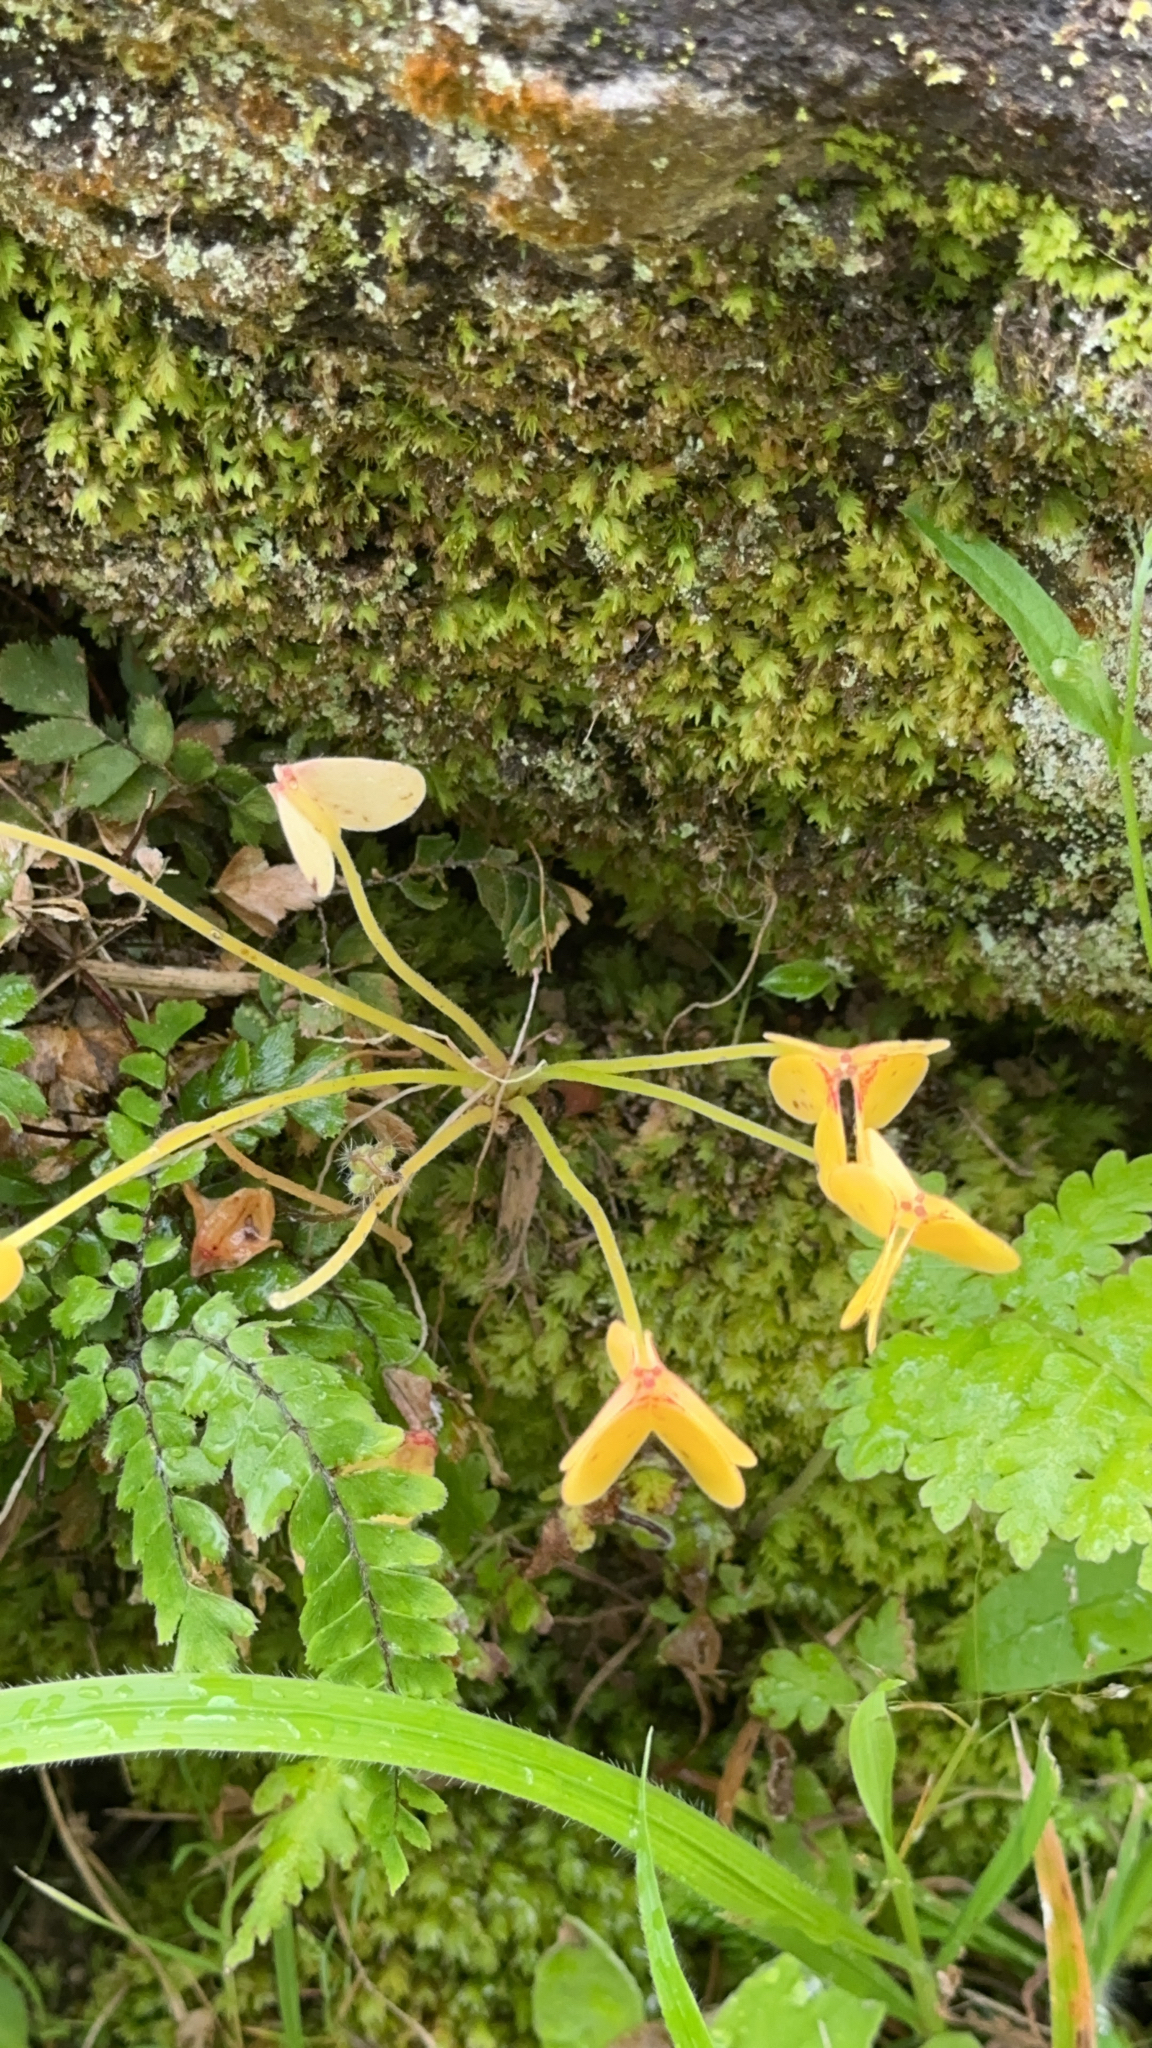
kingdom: Plantae
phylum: Tracheophyta
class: Magnoliopsida
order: Oxalidales
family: Oxalidaceae
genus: Oxalis
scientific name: Oxalis pes-caprae
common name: Bermuda-buttercup
